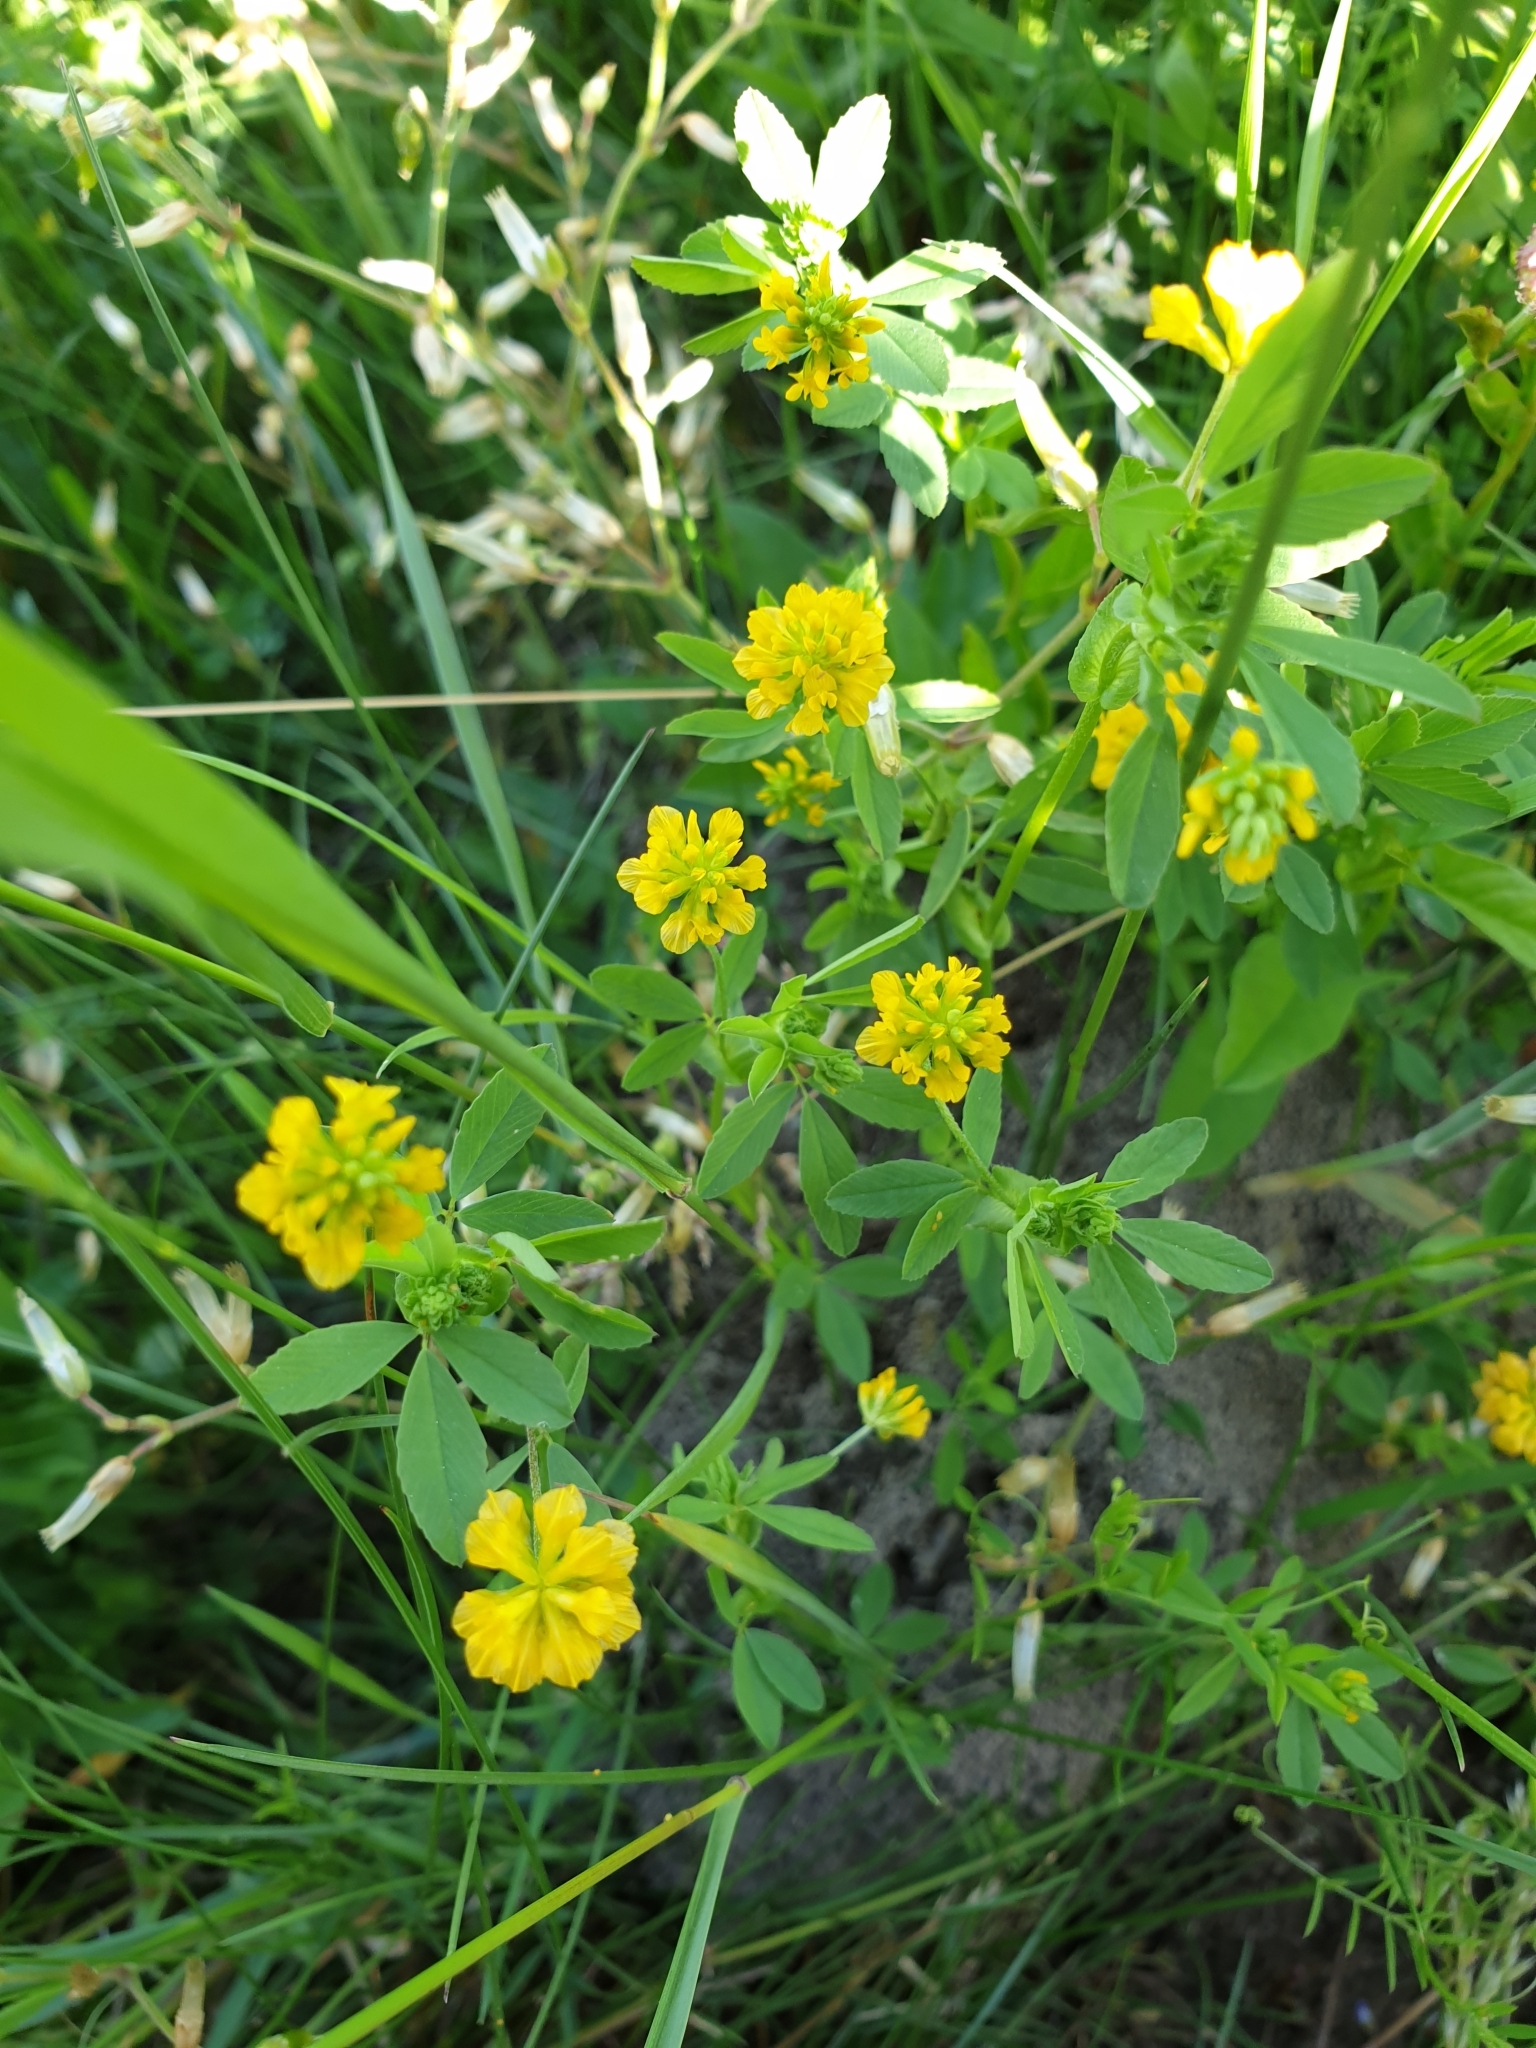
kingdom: Plantae
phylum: Tracheophyta
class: Magnoliopsida
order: Fabales
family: Fabaceae
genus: Trifolium
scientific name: Trifolium campestre
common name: Field clover
